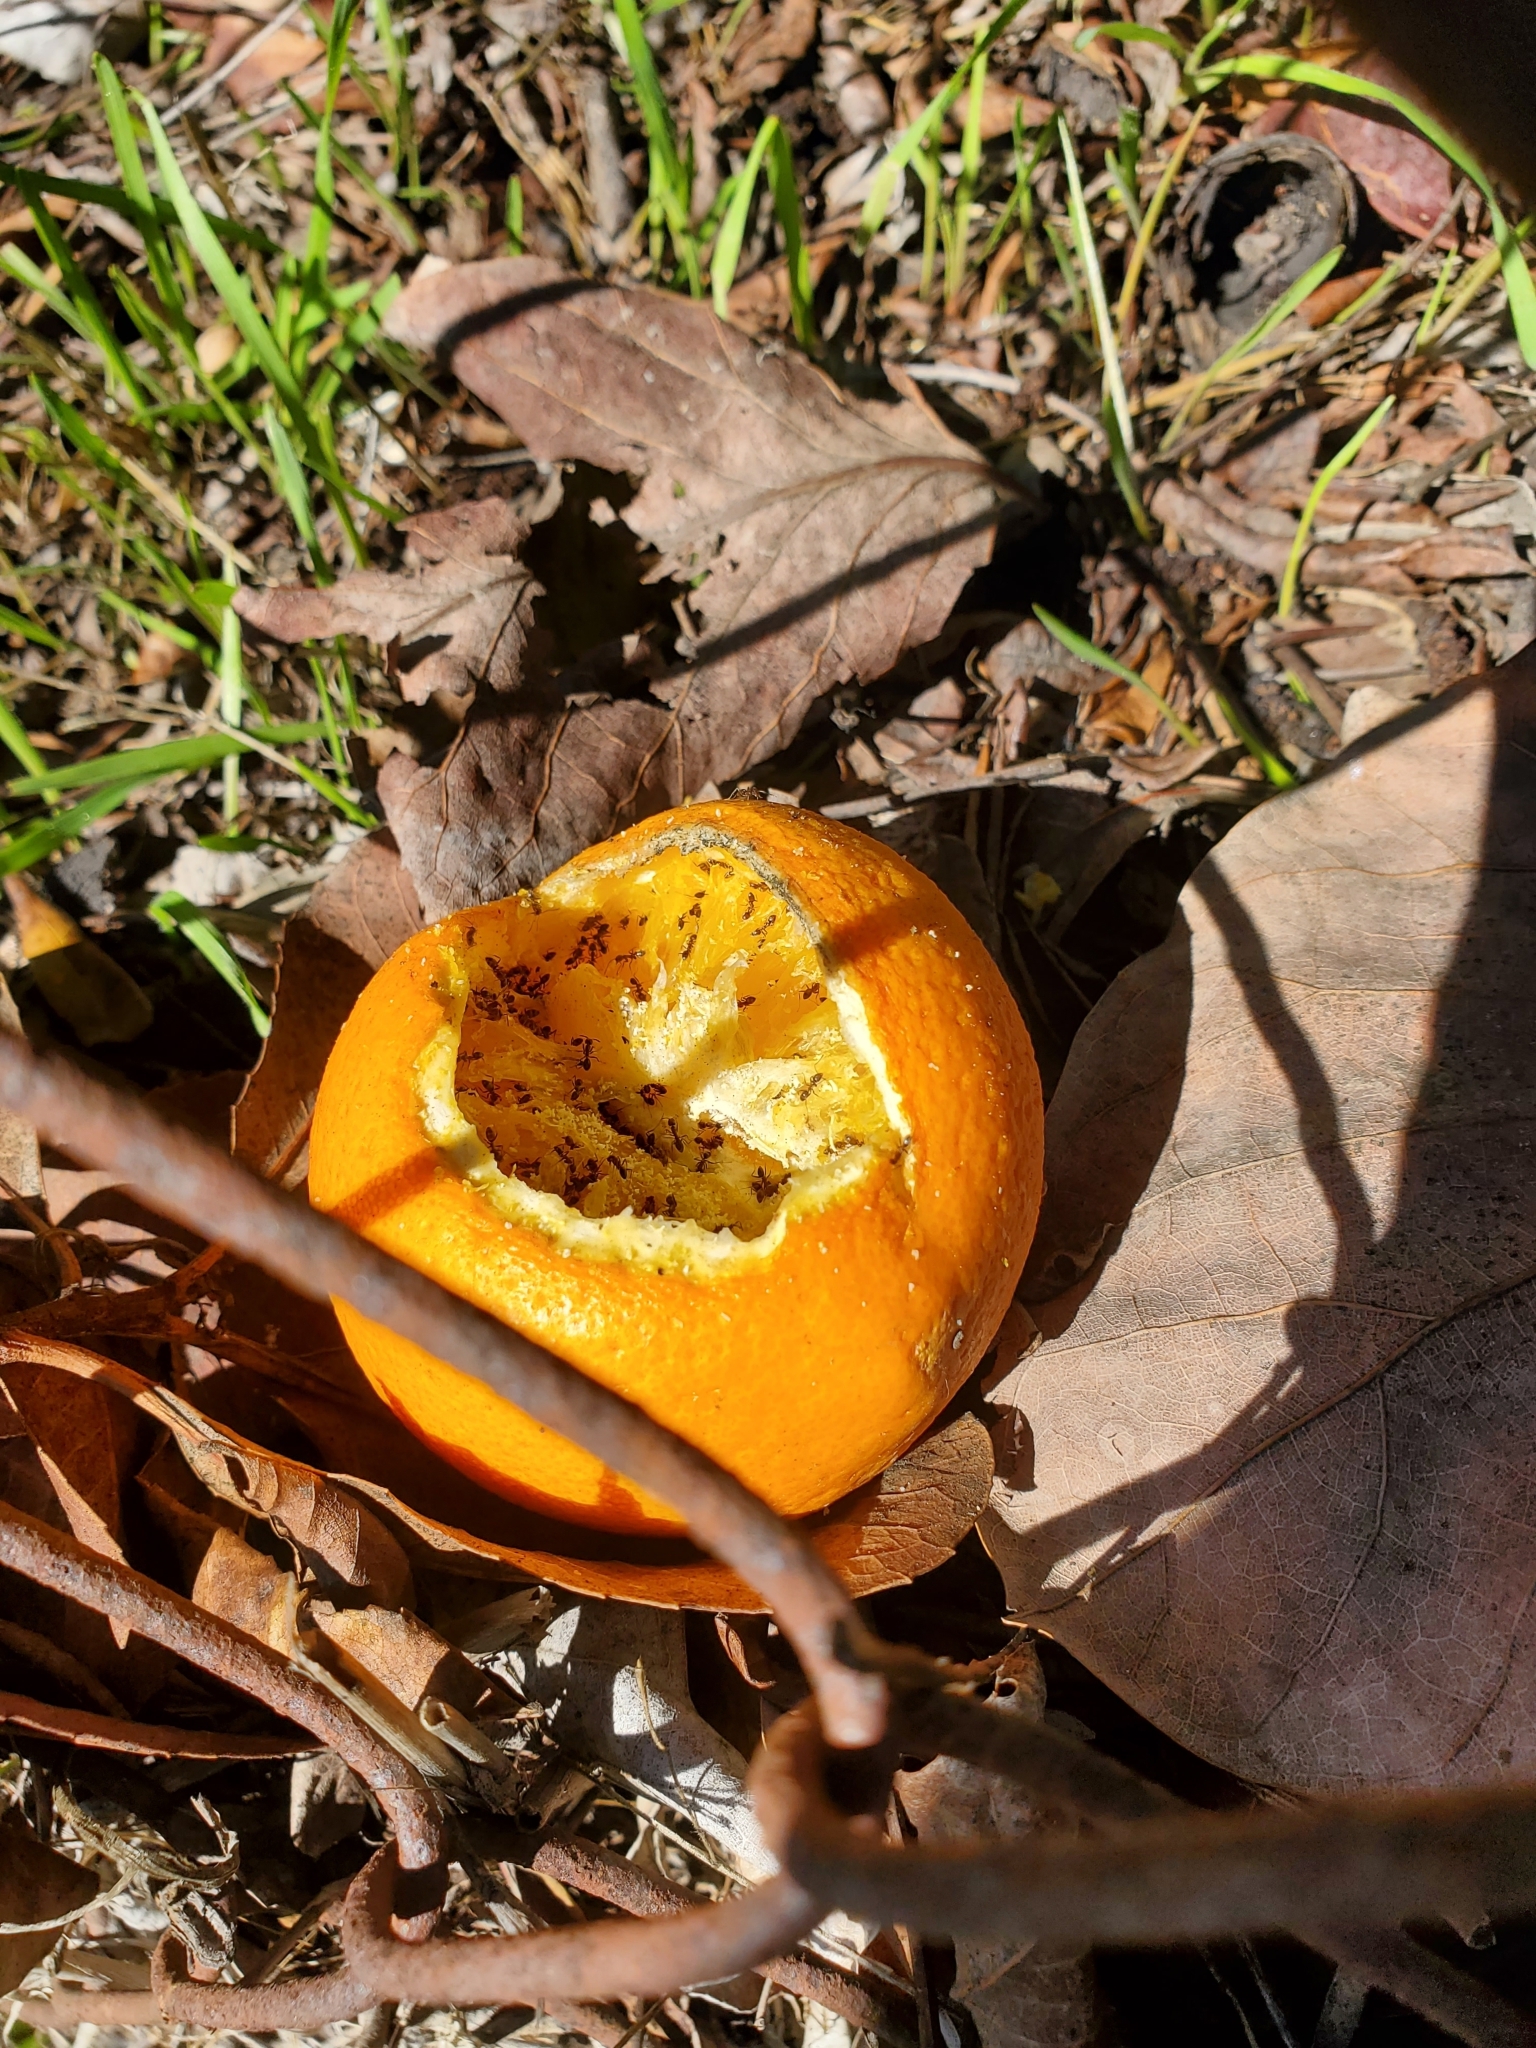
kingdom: Animalia
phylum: Arthropoda
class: Insecta
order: Hymenoptera
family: Formicidae
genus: Linepithema
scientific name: Linepithema humile
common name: Argentine ant
